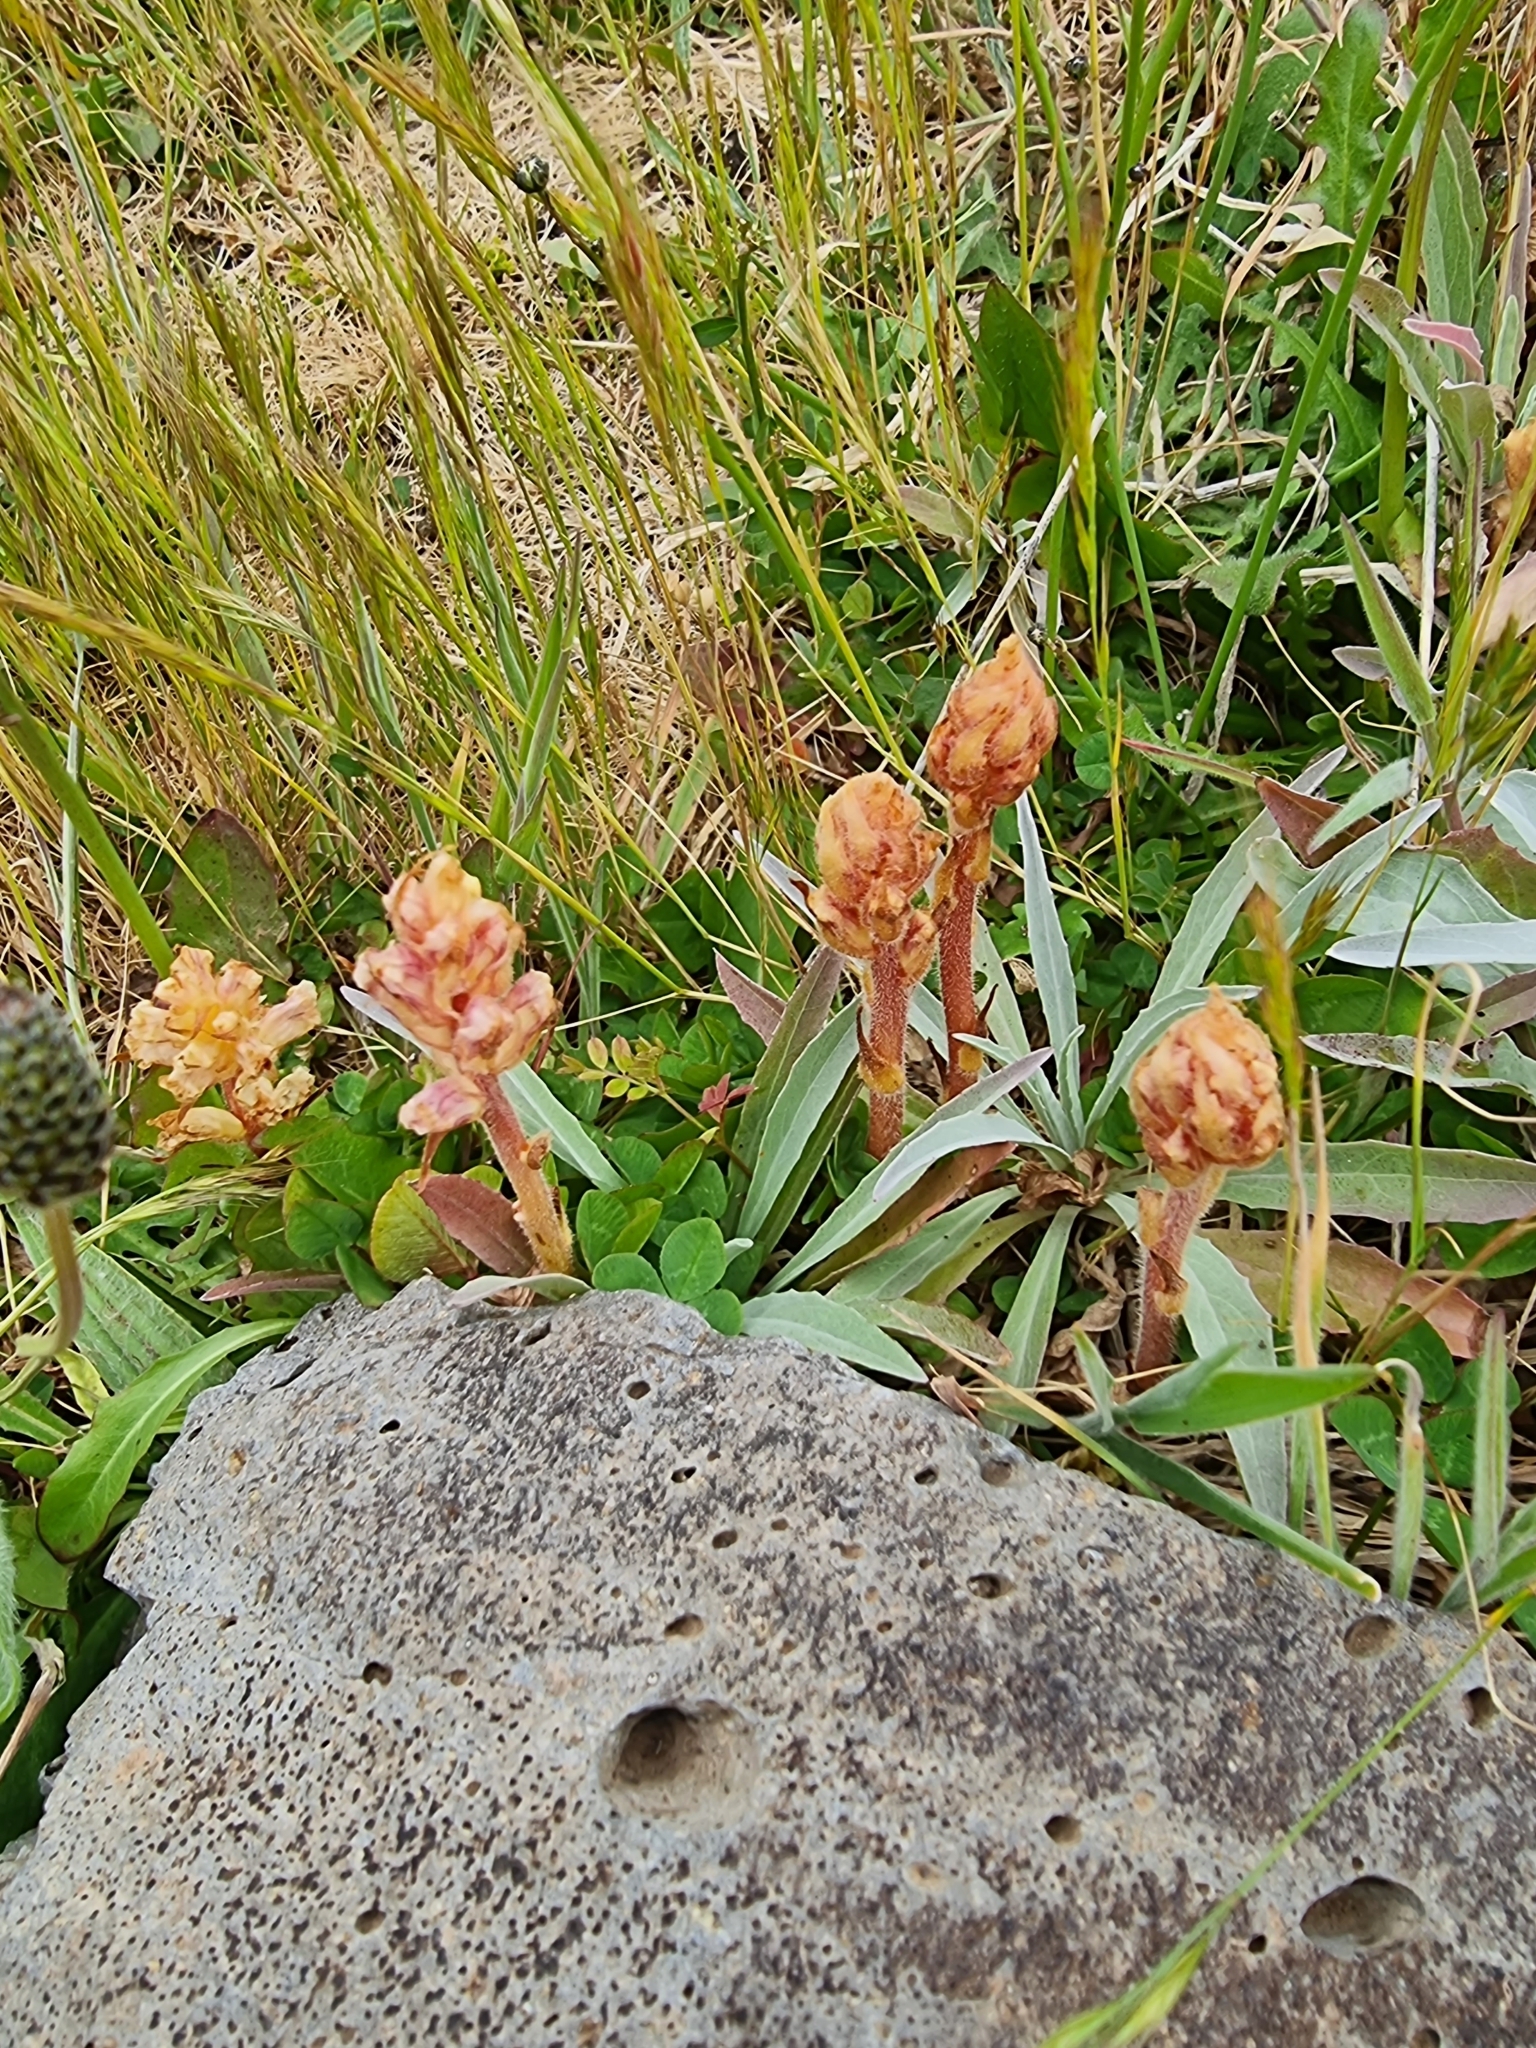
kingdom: Plantae
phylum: Tracheophyta
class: Magnoliopsida
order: Lamiales
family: Orobanchaceae
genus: Orobanche
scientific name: Orobanche minor
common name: Common broomrape
